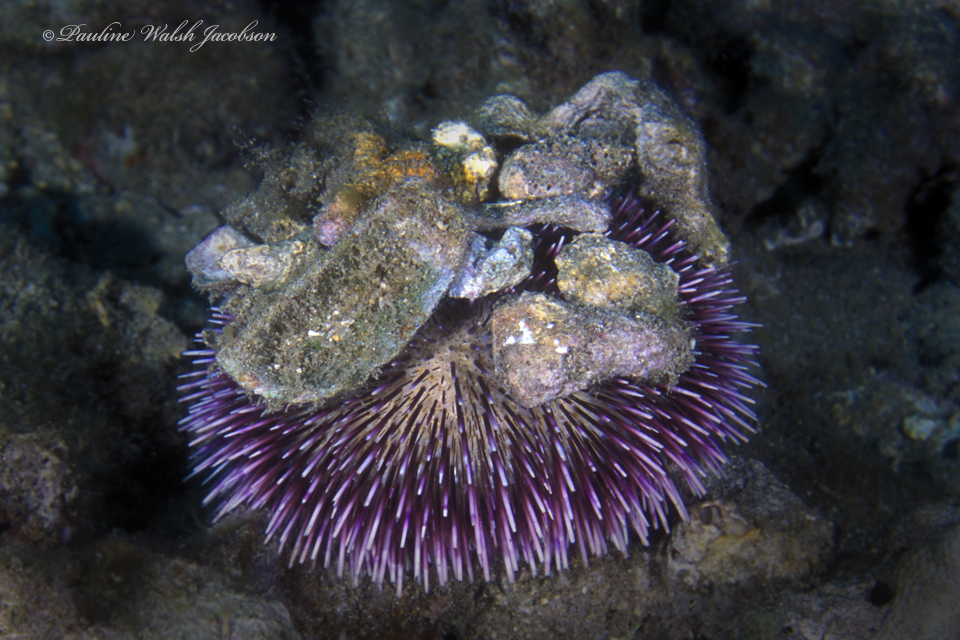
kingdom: Animalia
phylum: Echinodermata
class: Echinoidea
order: Camarodonta
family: Toxopneustidae
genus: Pseudoboletia
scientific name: Pseudoboletia indiana
